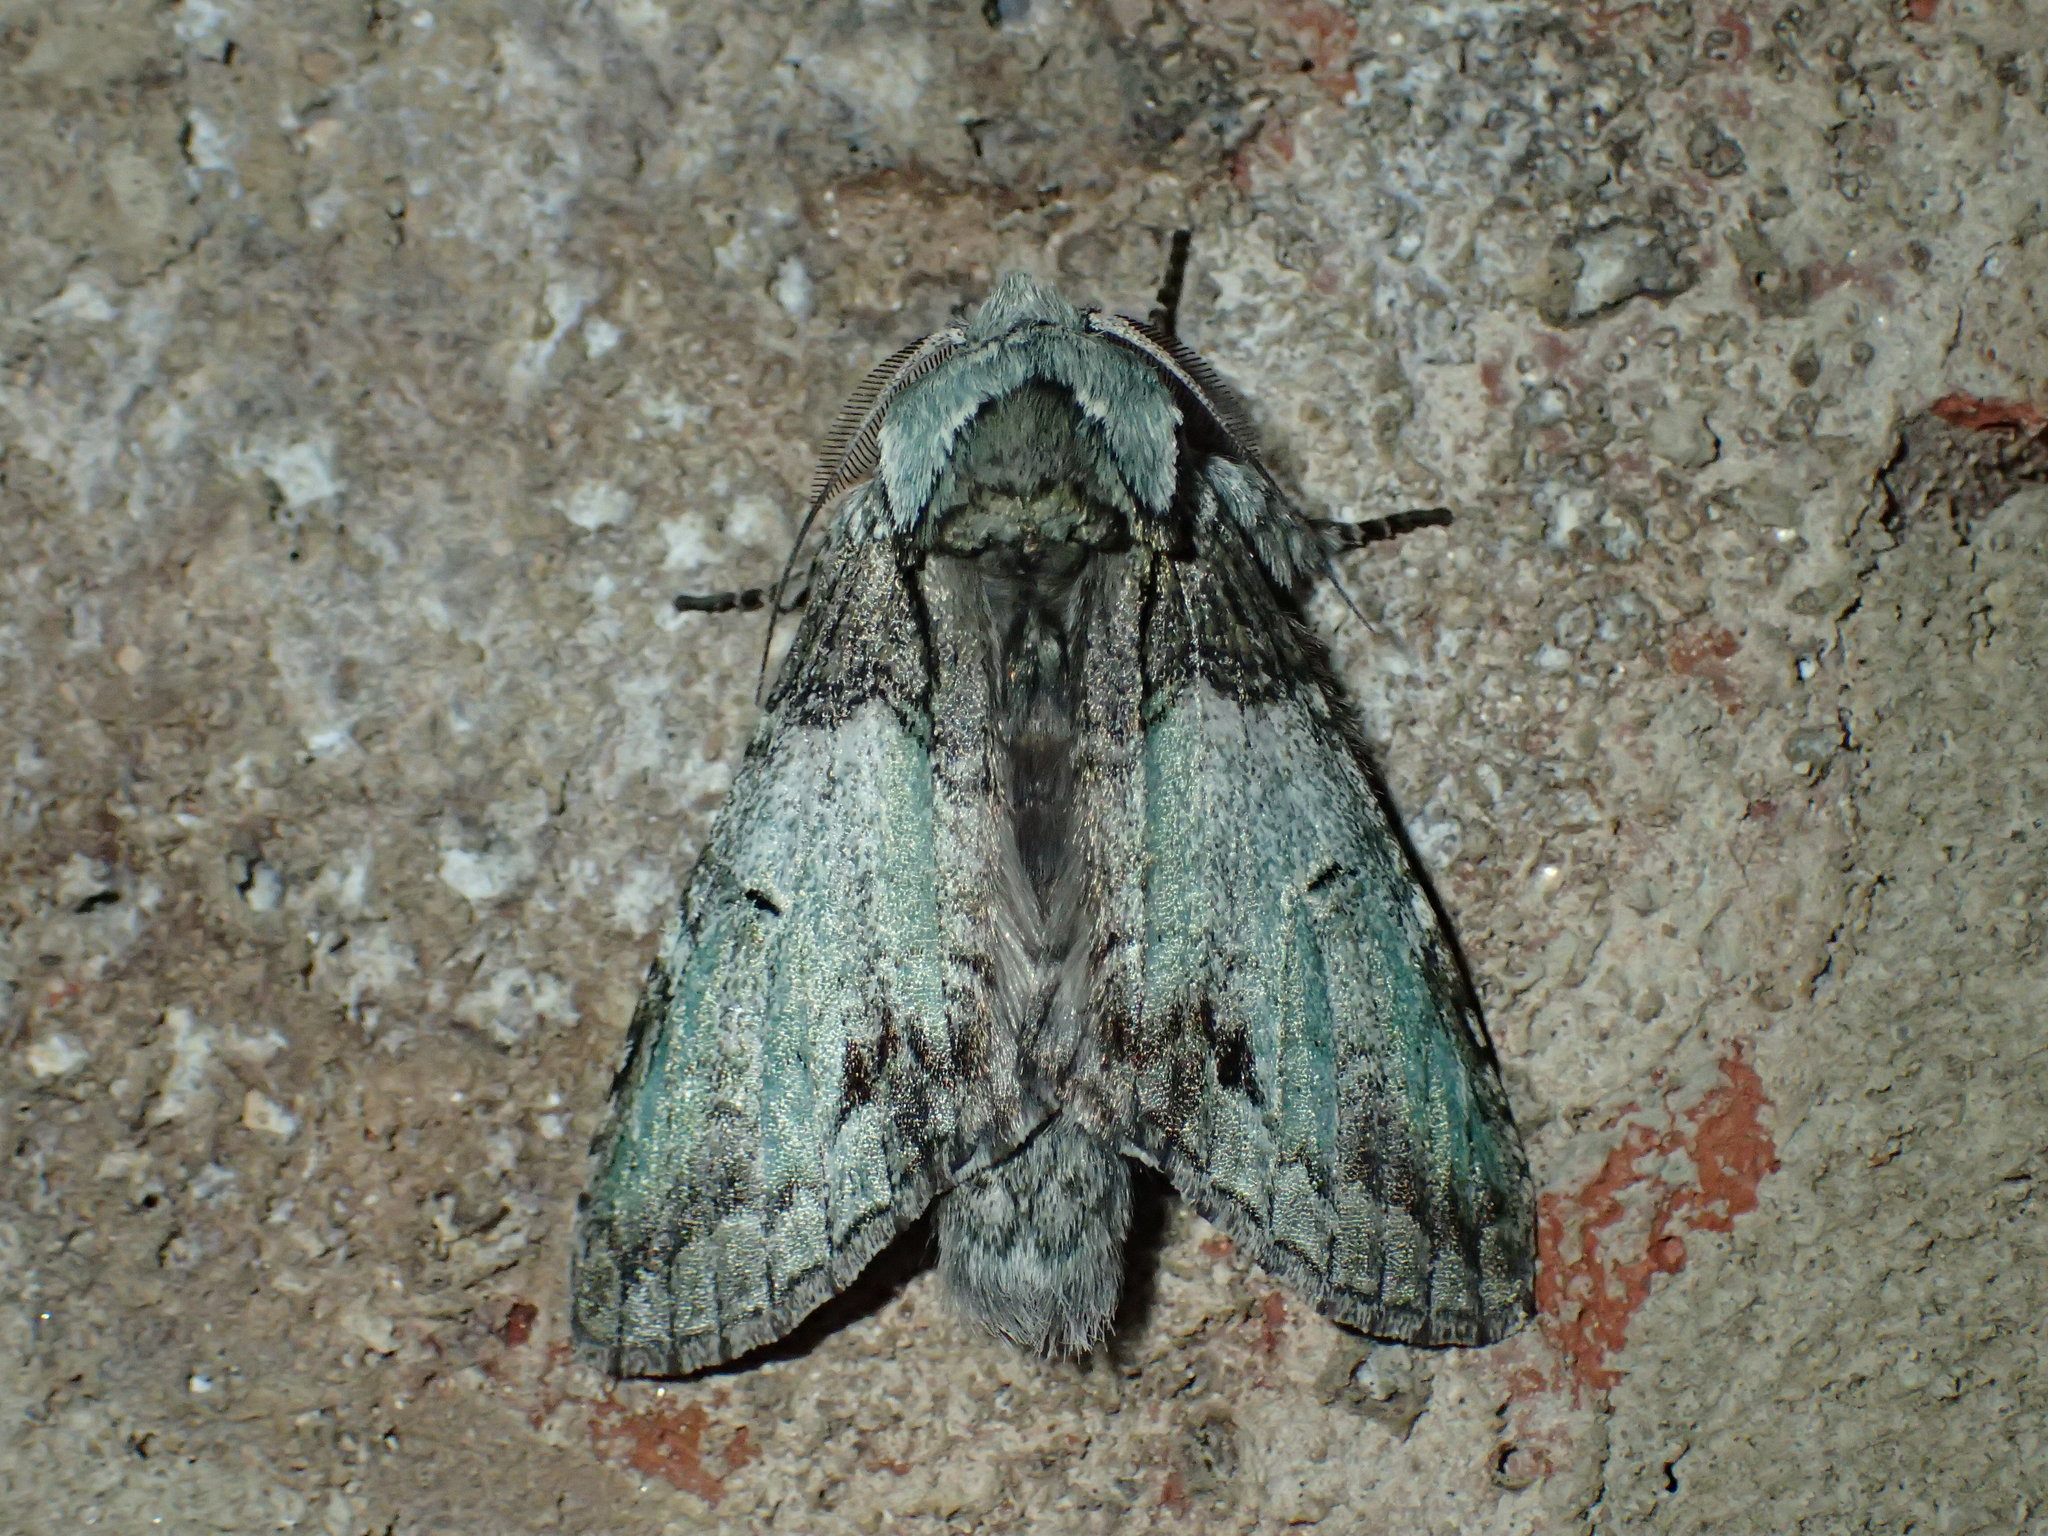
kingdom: Animalia
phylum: Arthropoda
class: Insecta
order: Lepidoptera
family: Notodontidae
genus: Macrurocampa
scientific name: Macrurocampa marthesia
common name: Mottled prominent
